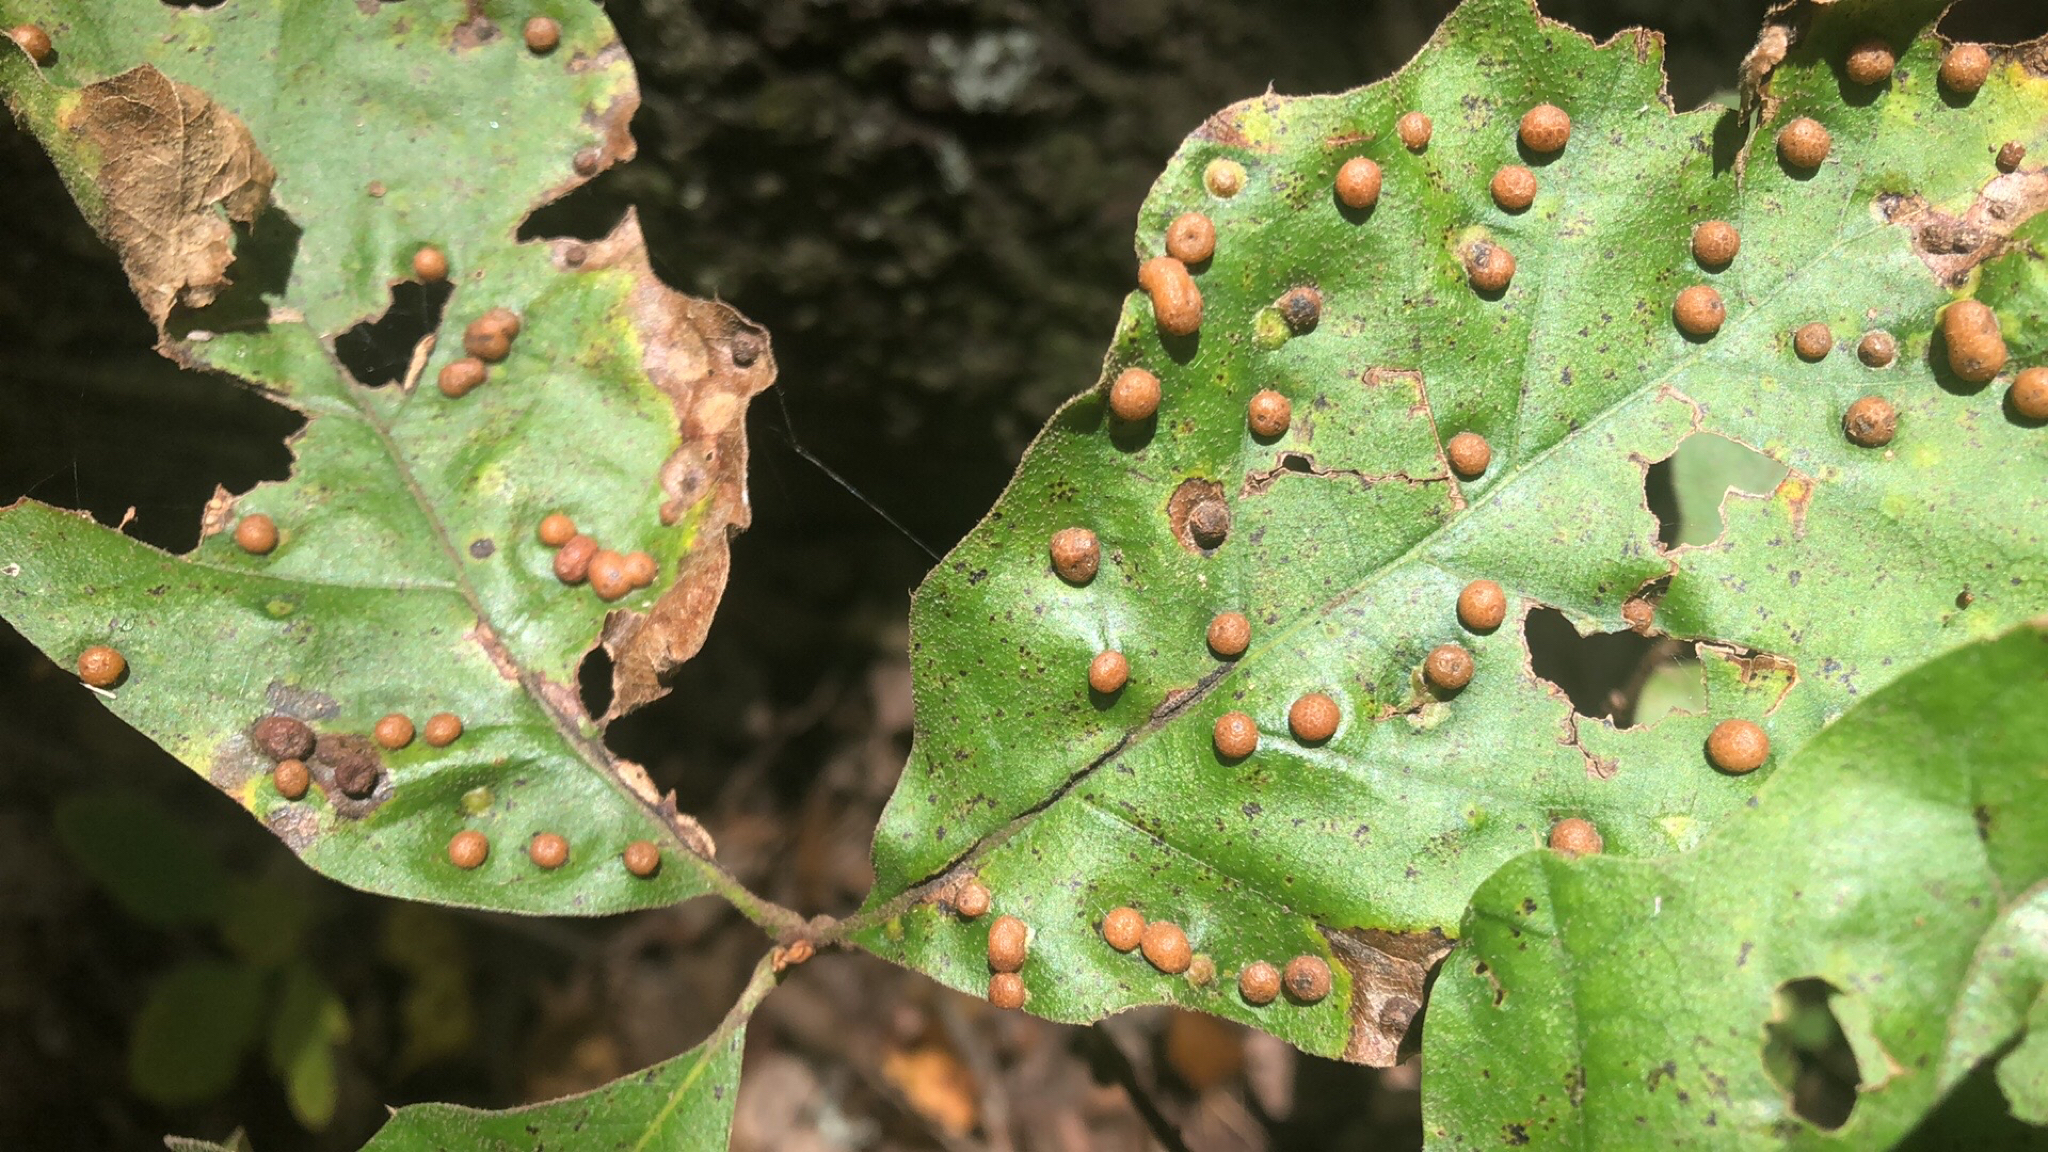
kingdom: Animalia
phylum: Arthropoda
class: Insecta
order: Diptera
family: Cecidomyiidae
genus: Polystepha
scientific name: Polystepha pilulae
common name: Oak leaf gall midge
